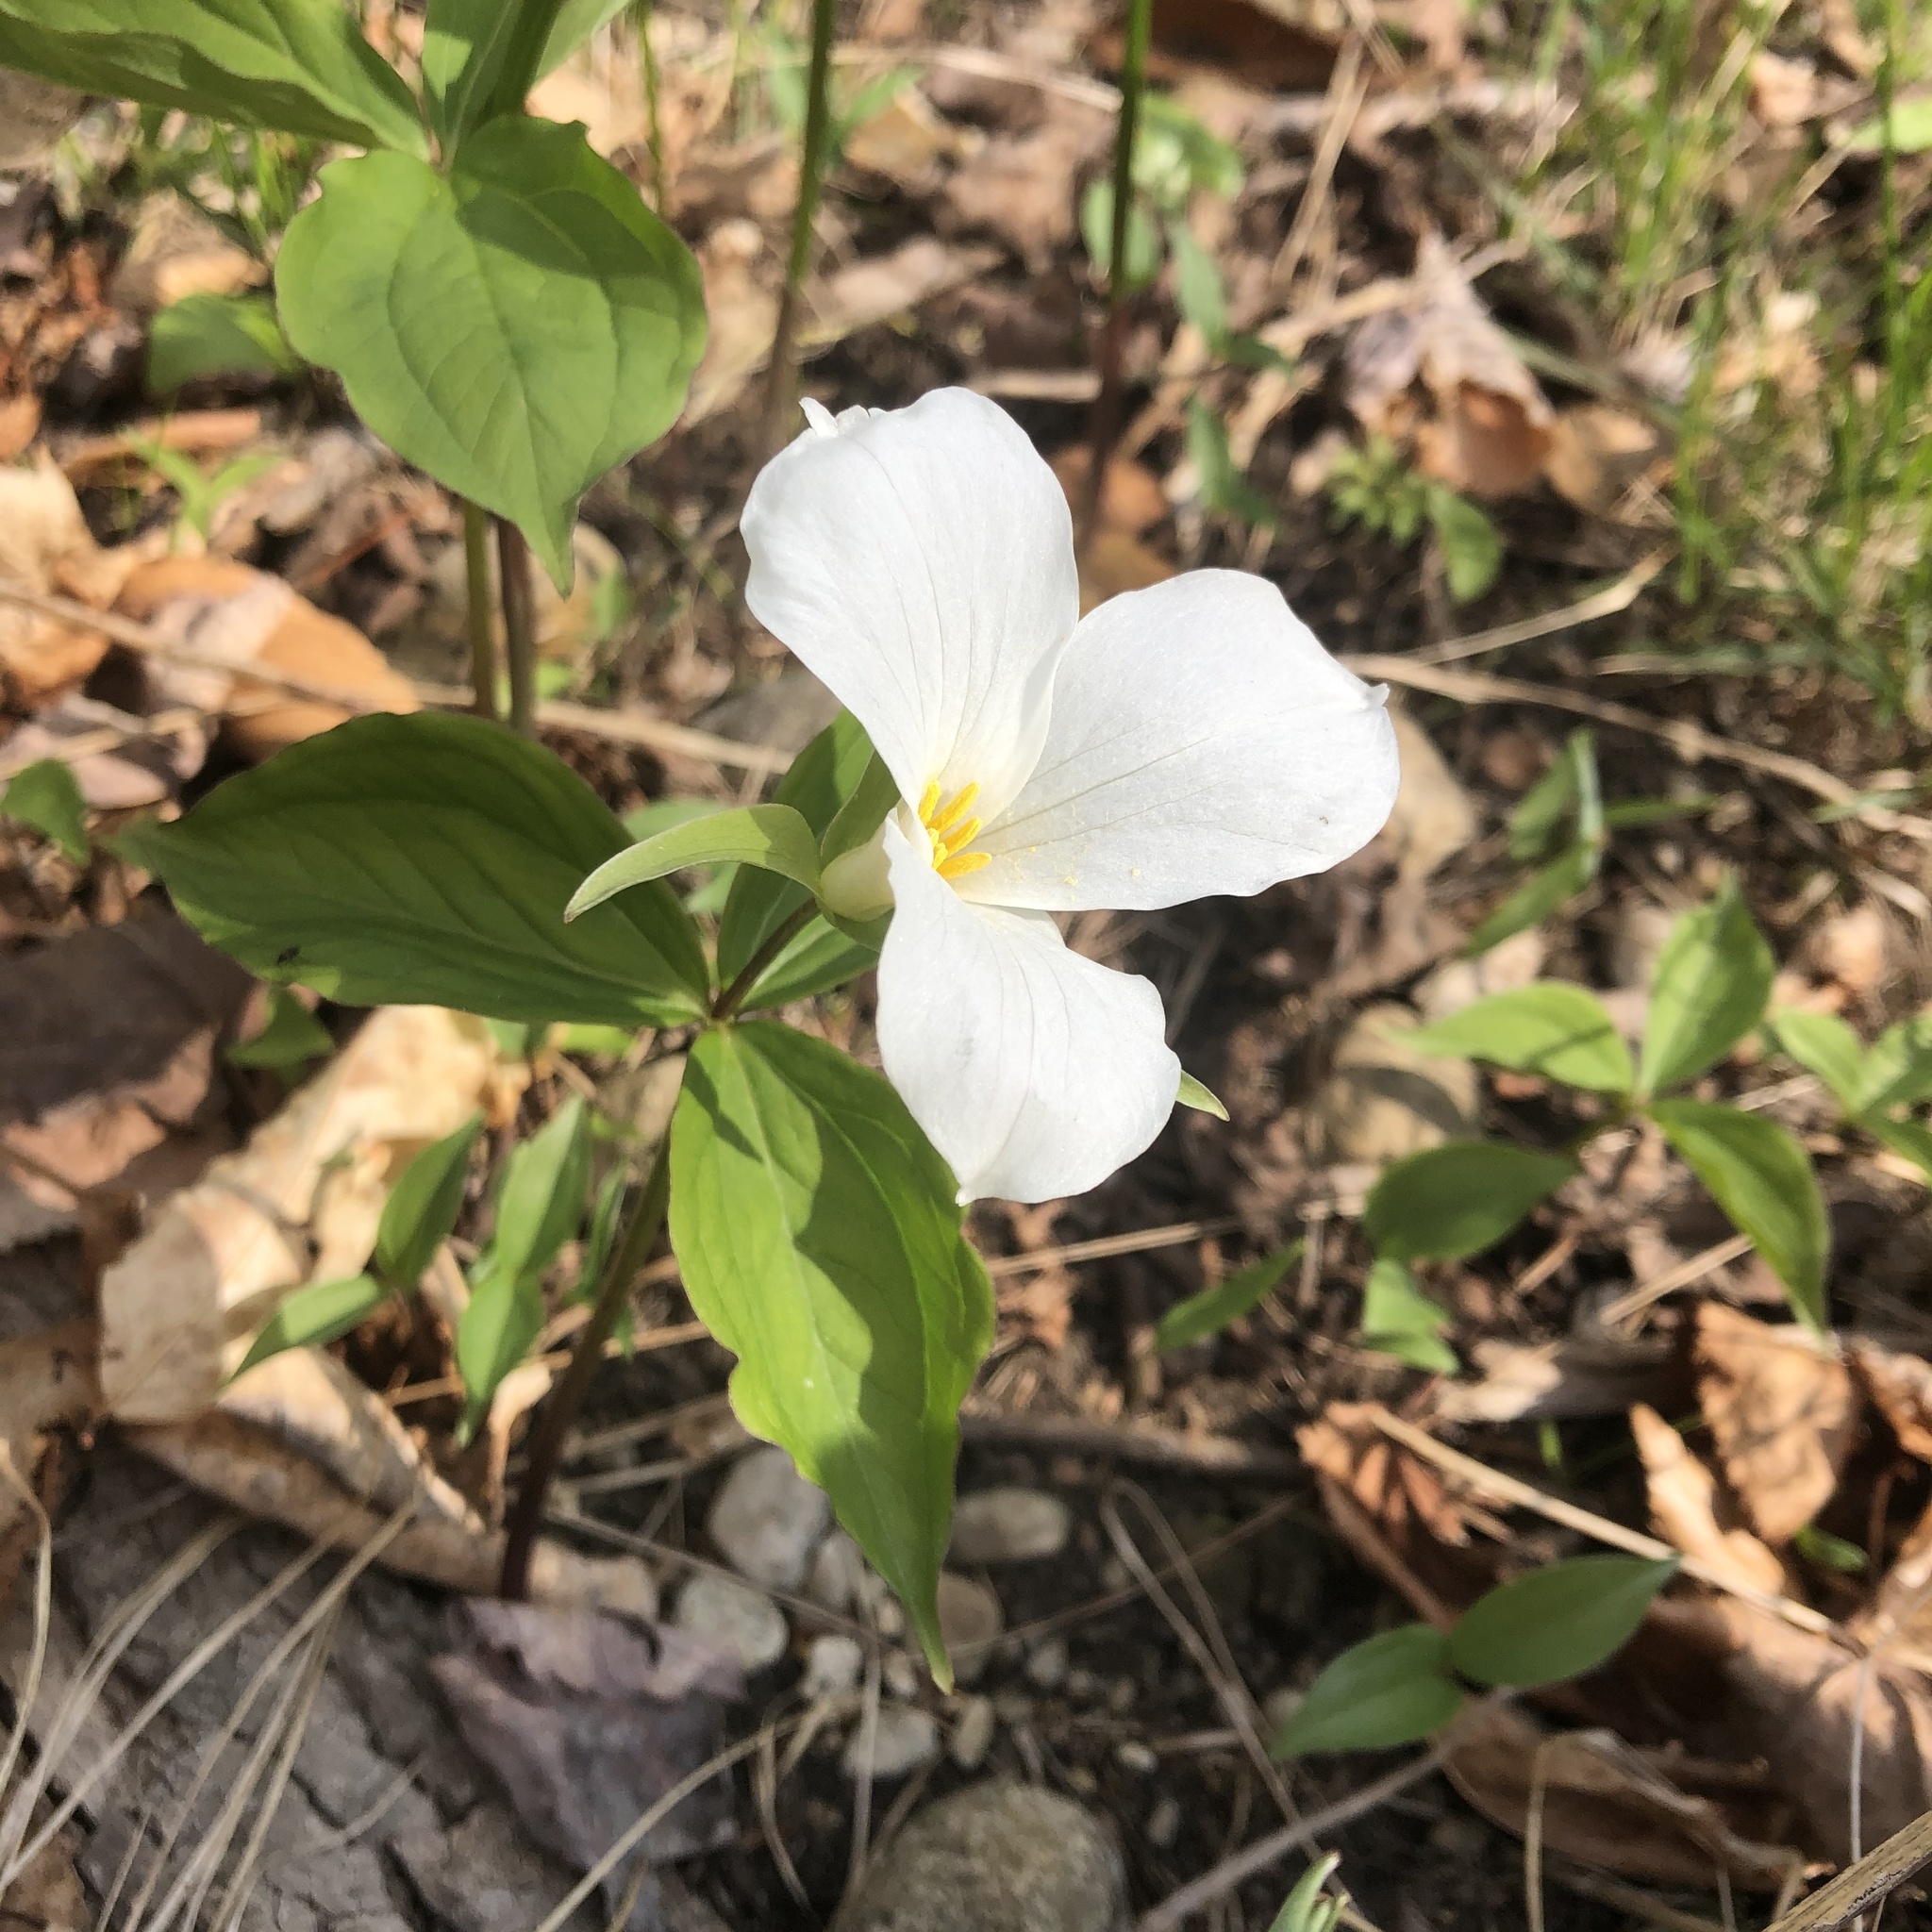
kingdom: Plantae
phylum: Tracheophyta
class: Liliopsida
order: Liliales
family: Melanthiaceae
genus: Trillium
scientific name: Trillium grandiflorum
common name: Great white trillium
